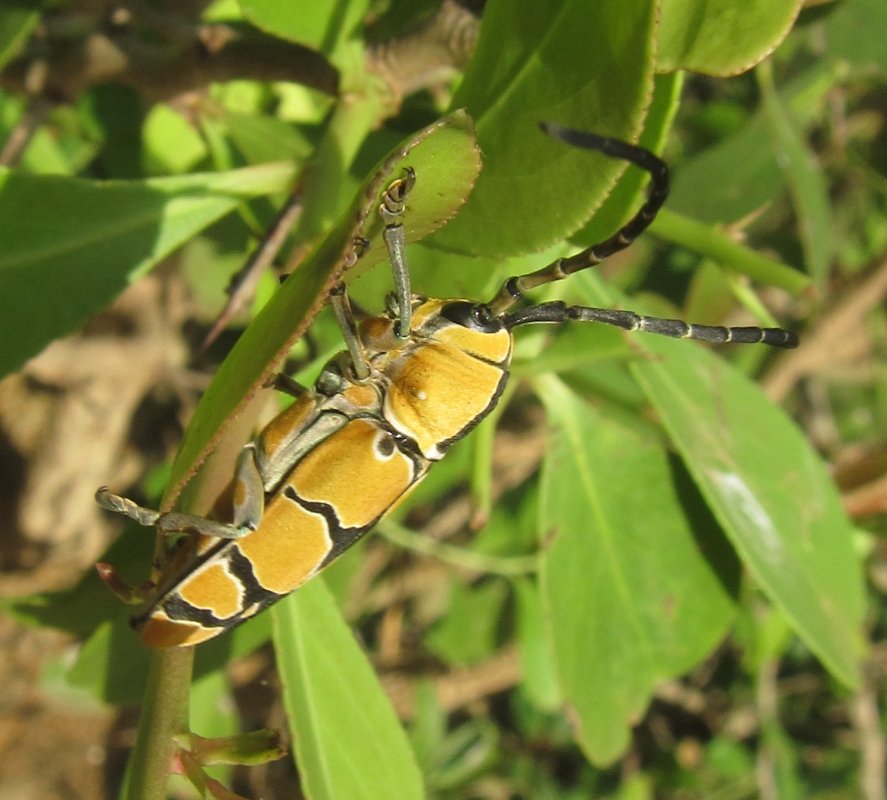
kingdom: Animalia
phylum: Arthropoda
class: Insecta
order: Coleoptera
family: Cerambycidae
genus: Tragocephala
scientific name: Tragocephala frenata
